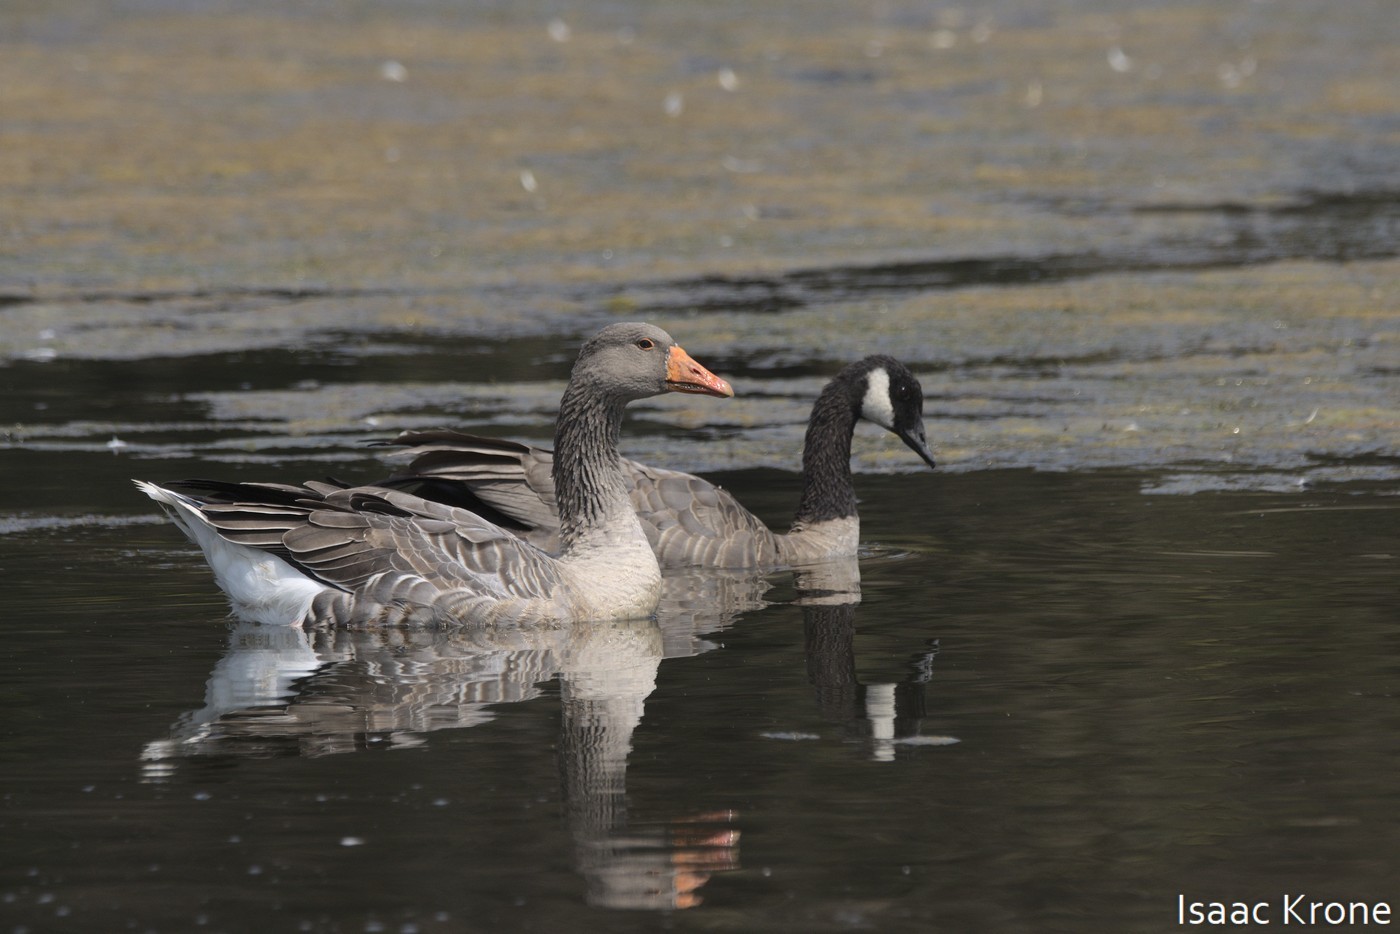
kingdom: Animalia
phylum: Chordata
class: Aves
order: Anseriformes
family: Anatidae
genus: Anser
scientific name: Anser anser
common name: Greylag goose
